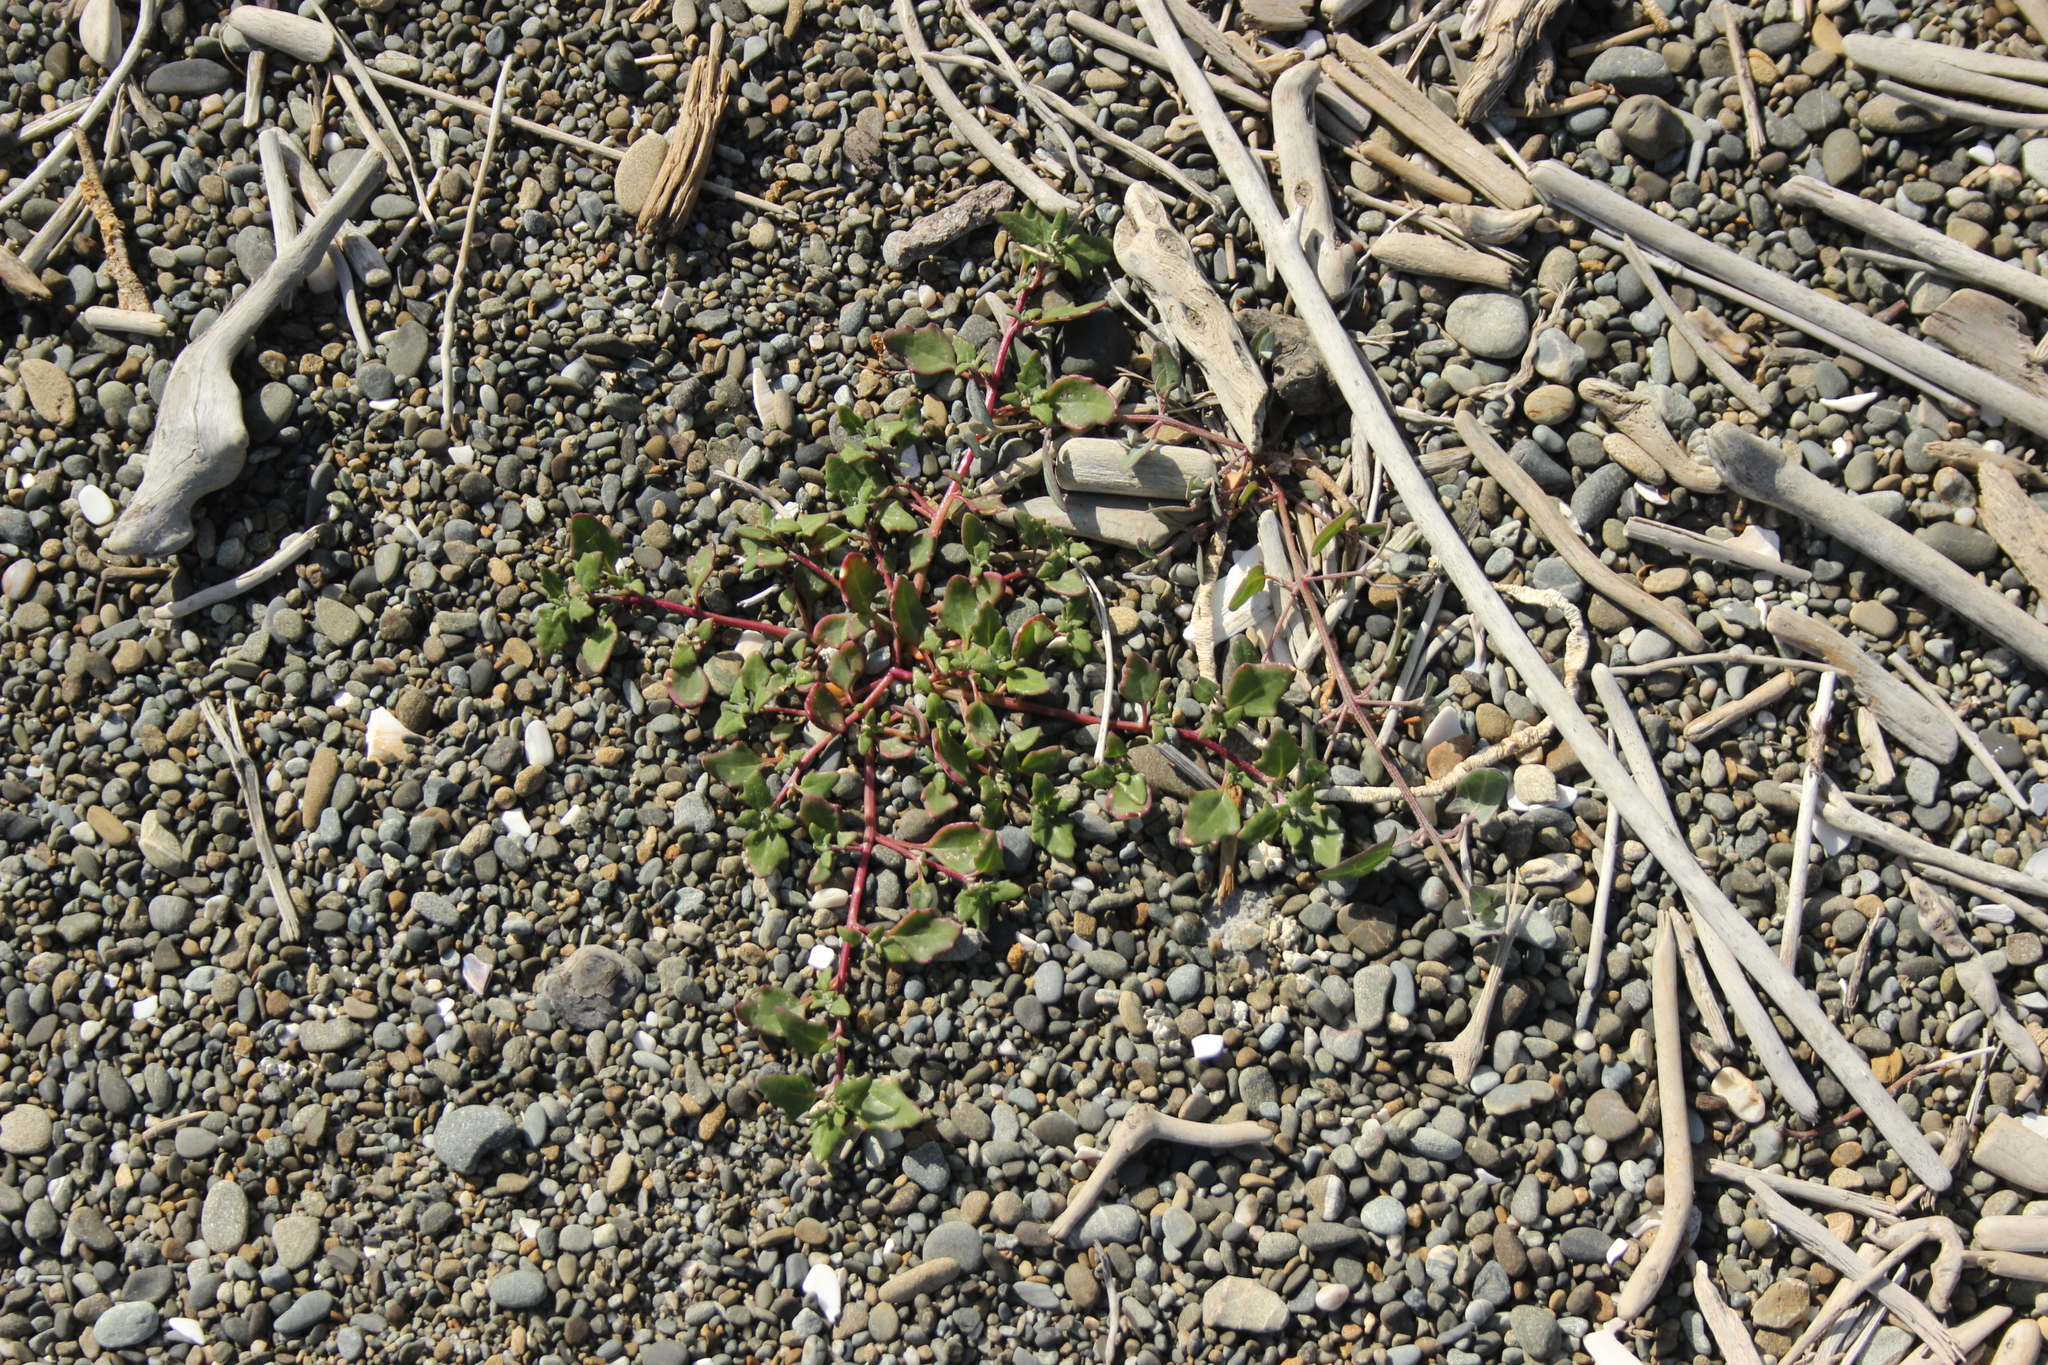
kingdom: Plantae
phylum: Tracheophyta
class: Magnoliopsida
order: Caryophyllales
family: Amaranthaceae
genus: Oxybasis
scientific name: Oxybasis ambigua
